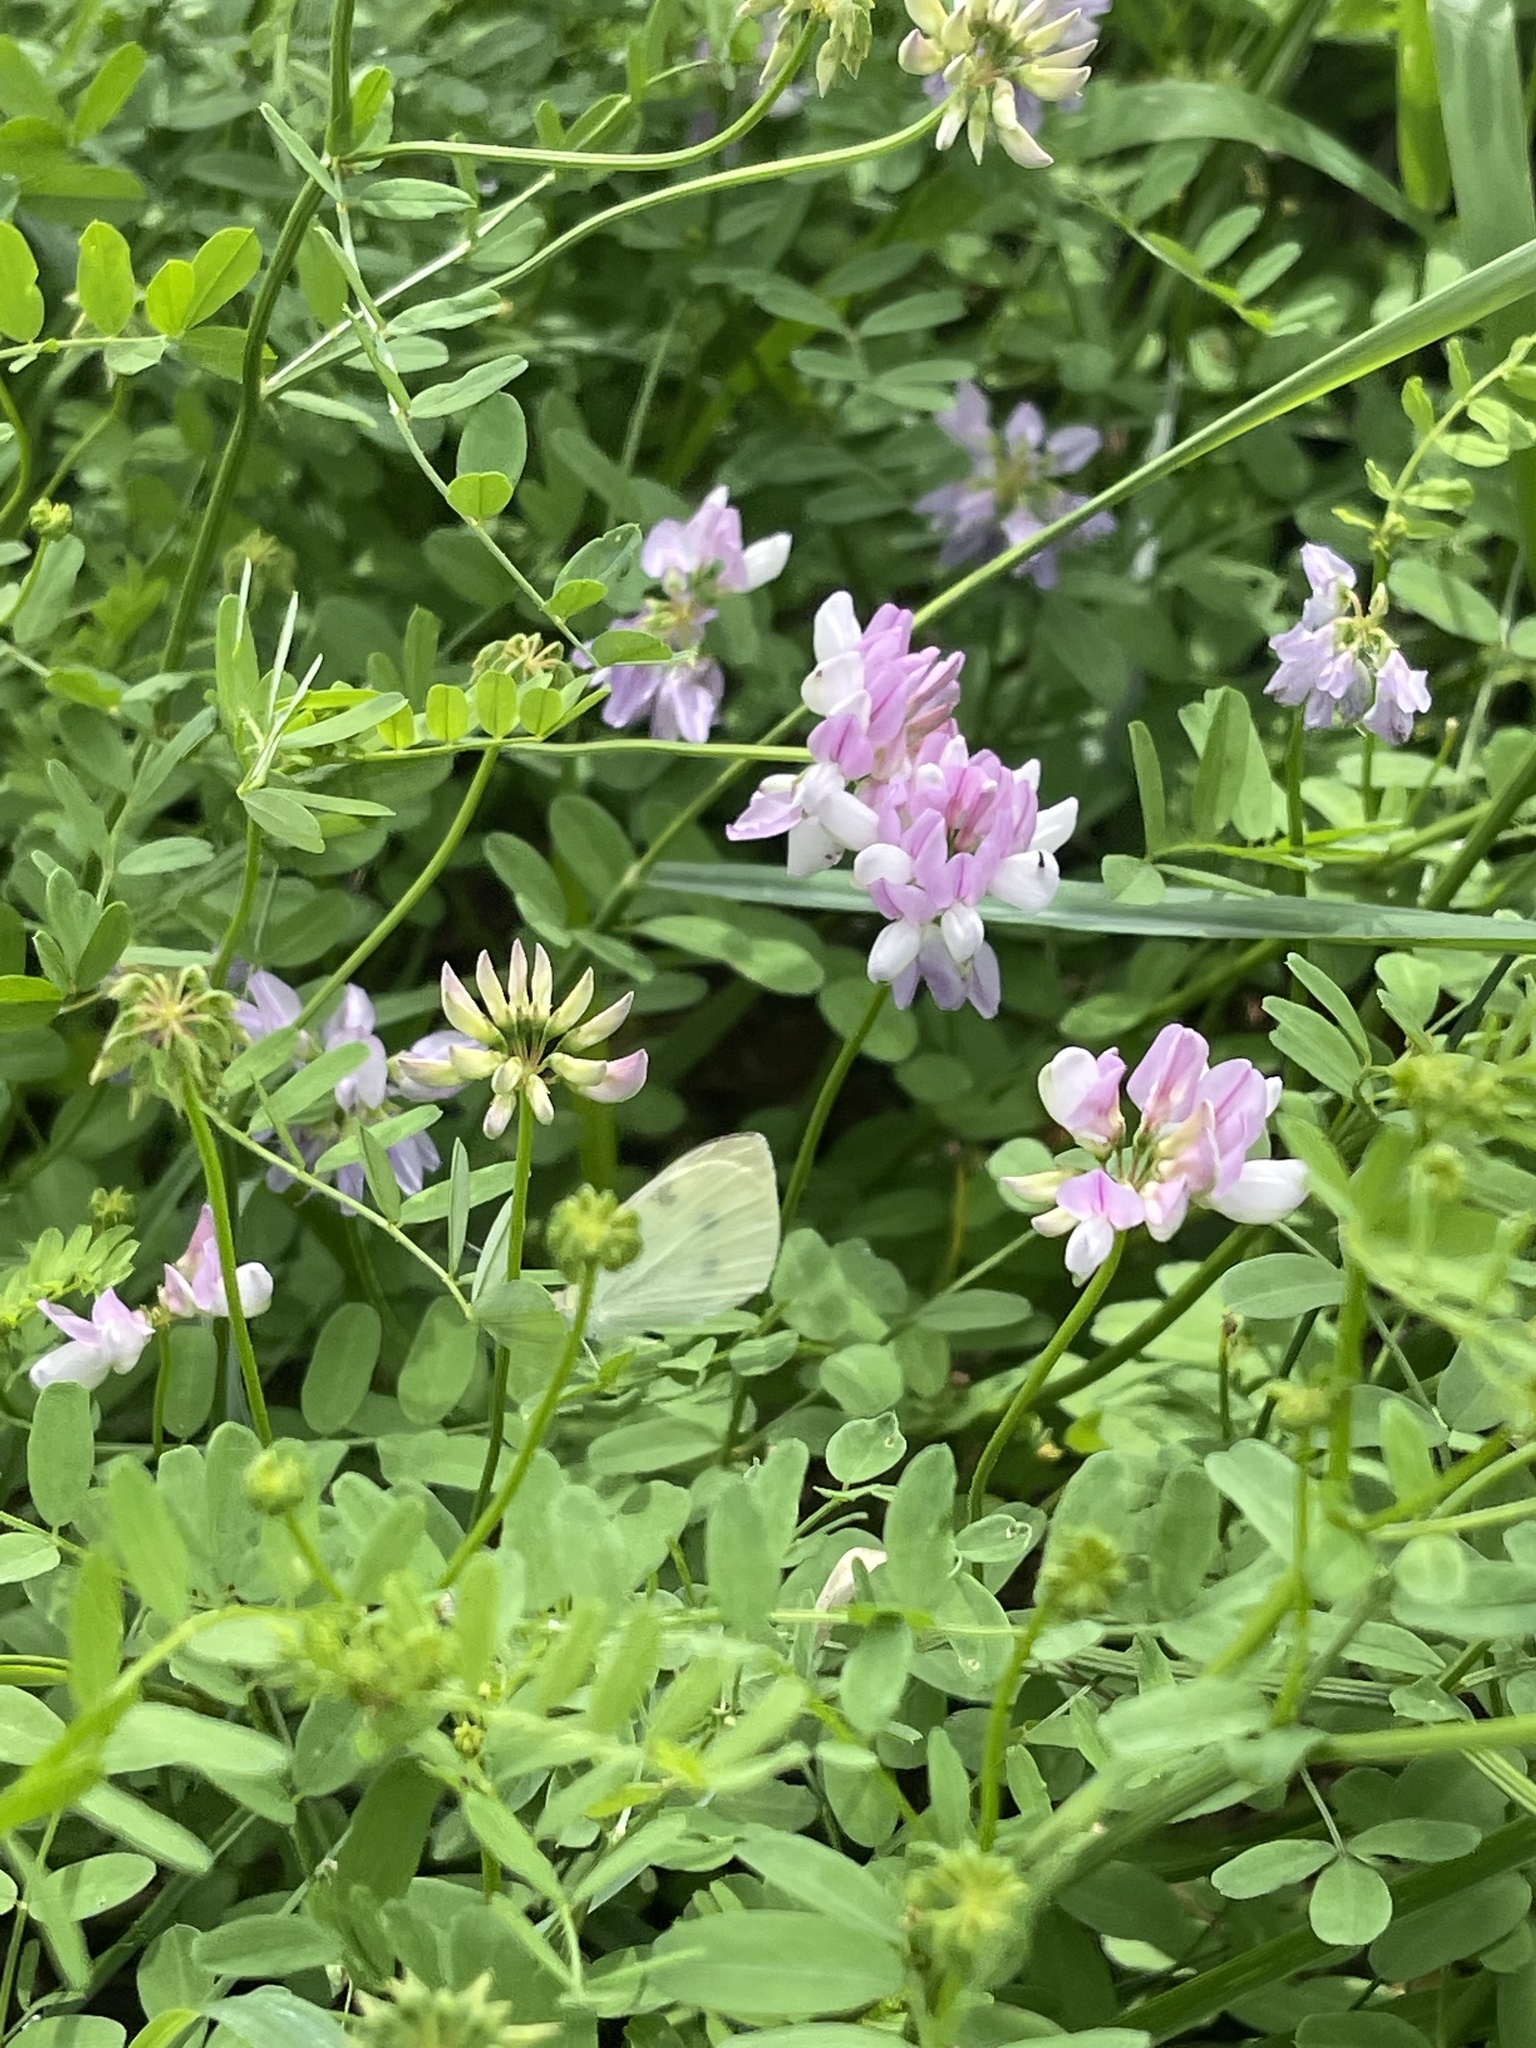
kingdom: Animalia
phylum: Arthropoda
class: Insecta
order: Lepidoptera
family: Pieridae
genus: Pieris
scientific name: Pieris rapae
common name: Small white
